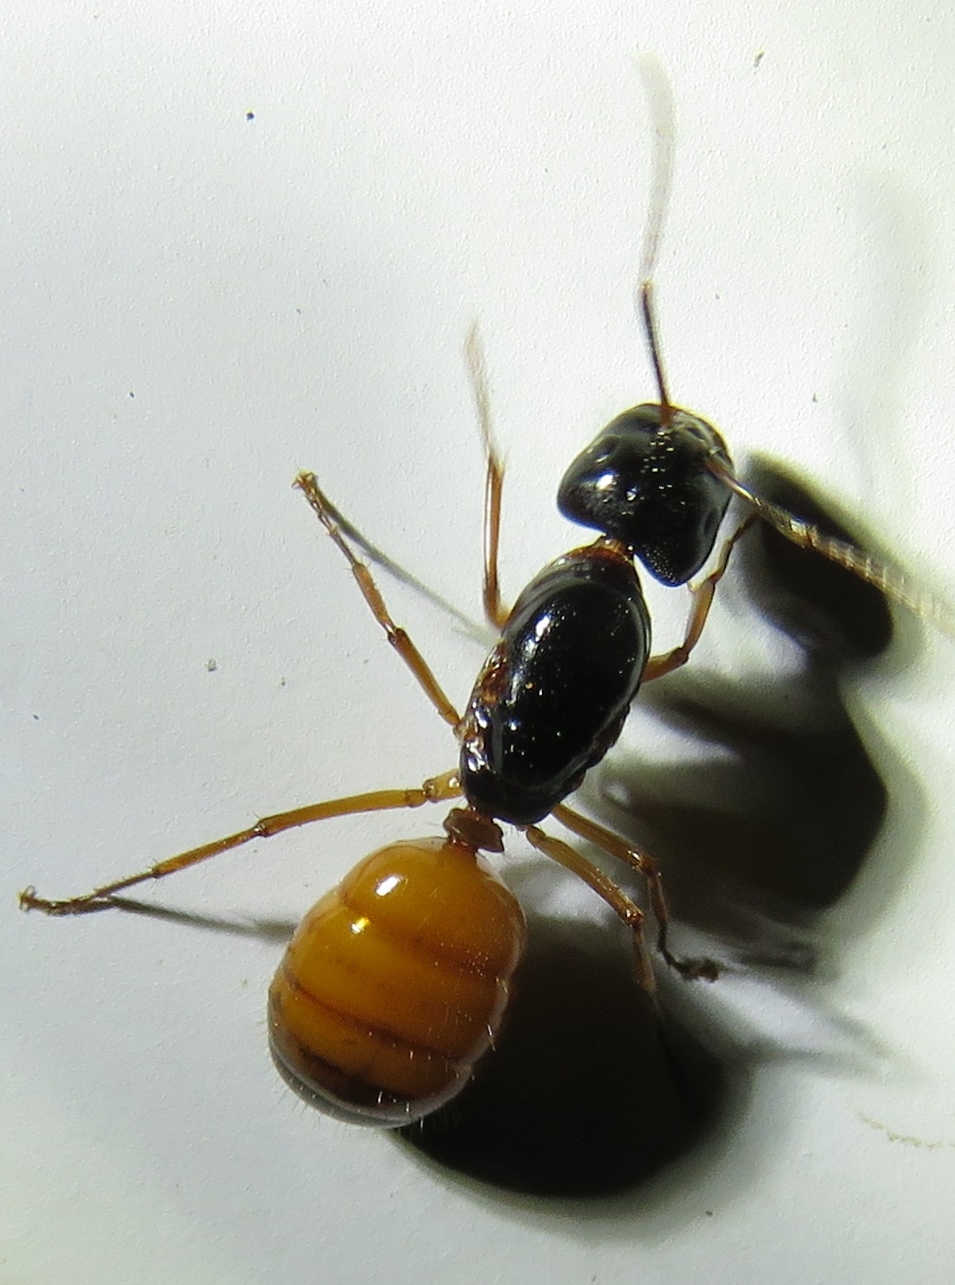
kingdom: Animalia
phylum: Arthropoda
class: Insecta
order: Hymenoptera
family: Formicidae
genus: Camponotus
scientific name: Camponotus sansabeanus
